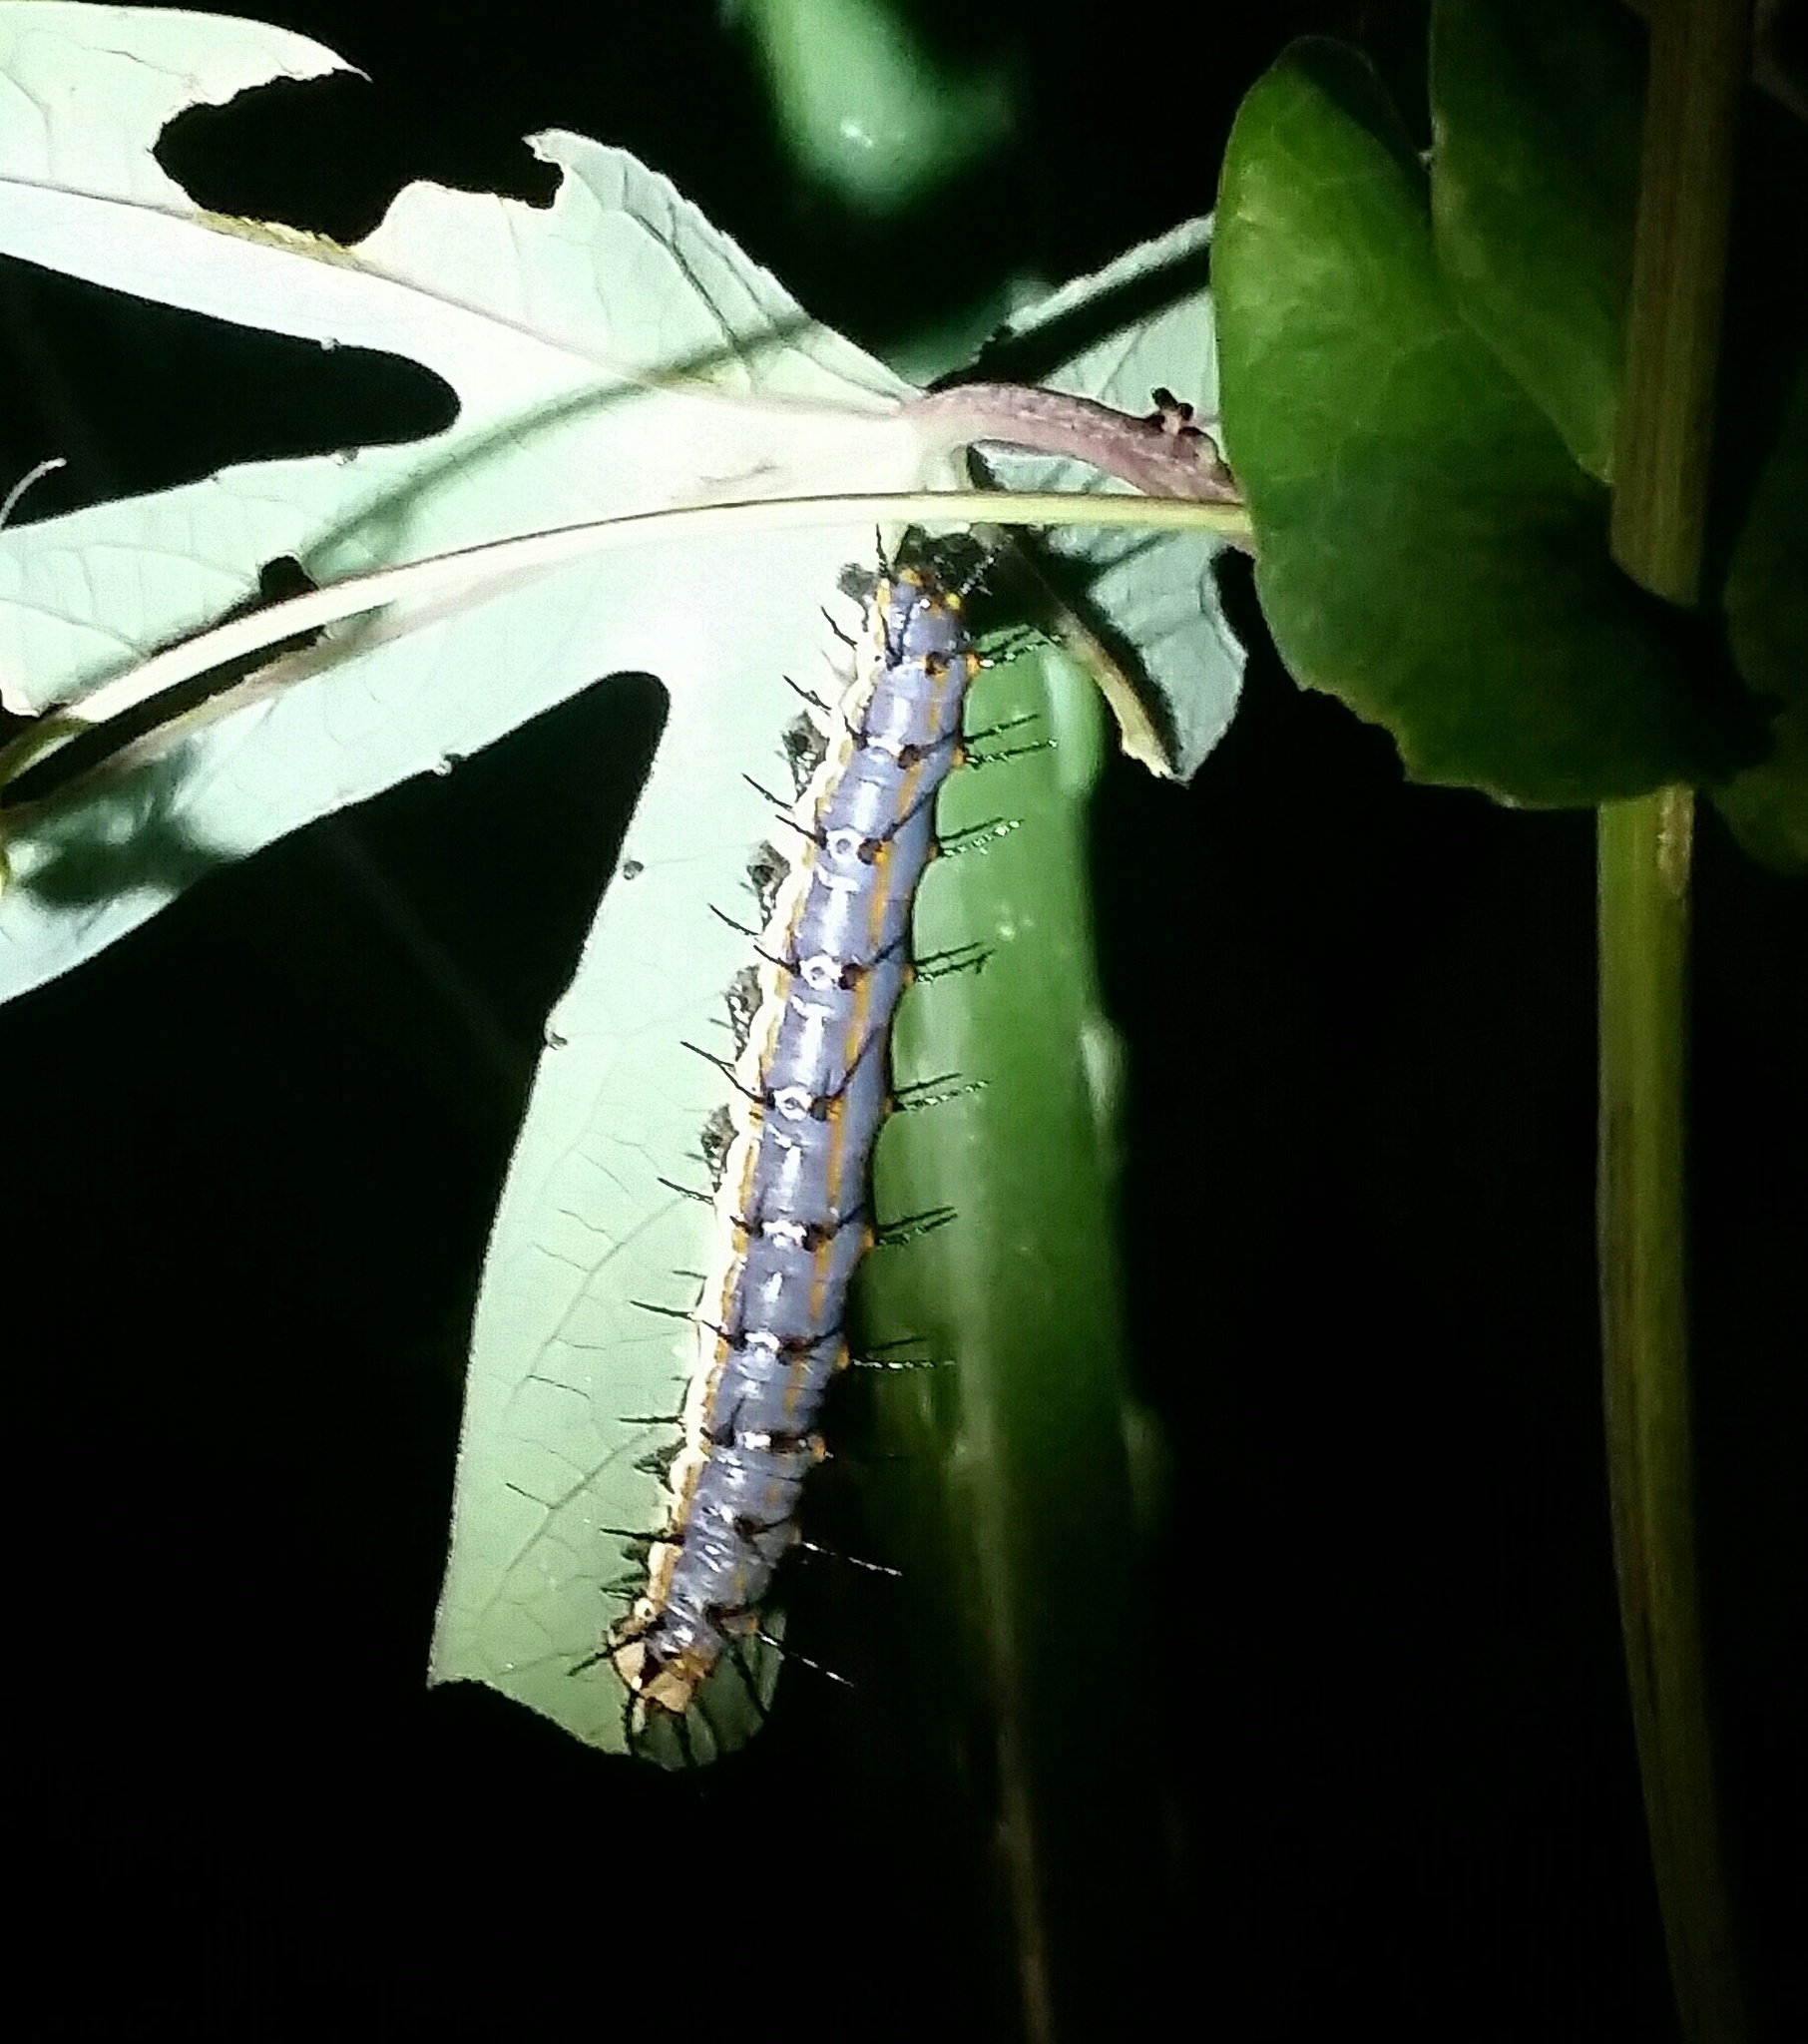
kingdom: Animalia
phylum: Arthropoda
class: Insecta
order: Lepidoptera
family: Nymphalidae
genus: Dione
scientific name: Dione vanillae
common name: Gulf fritillary
